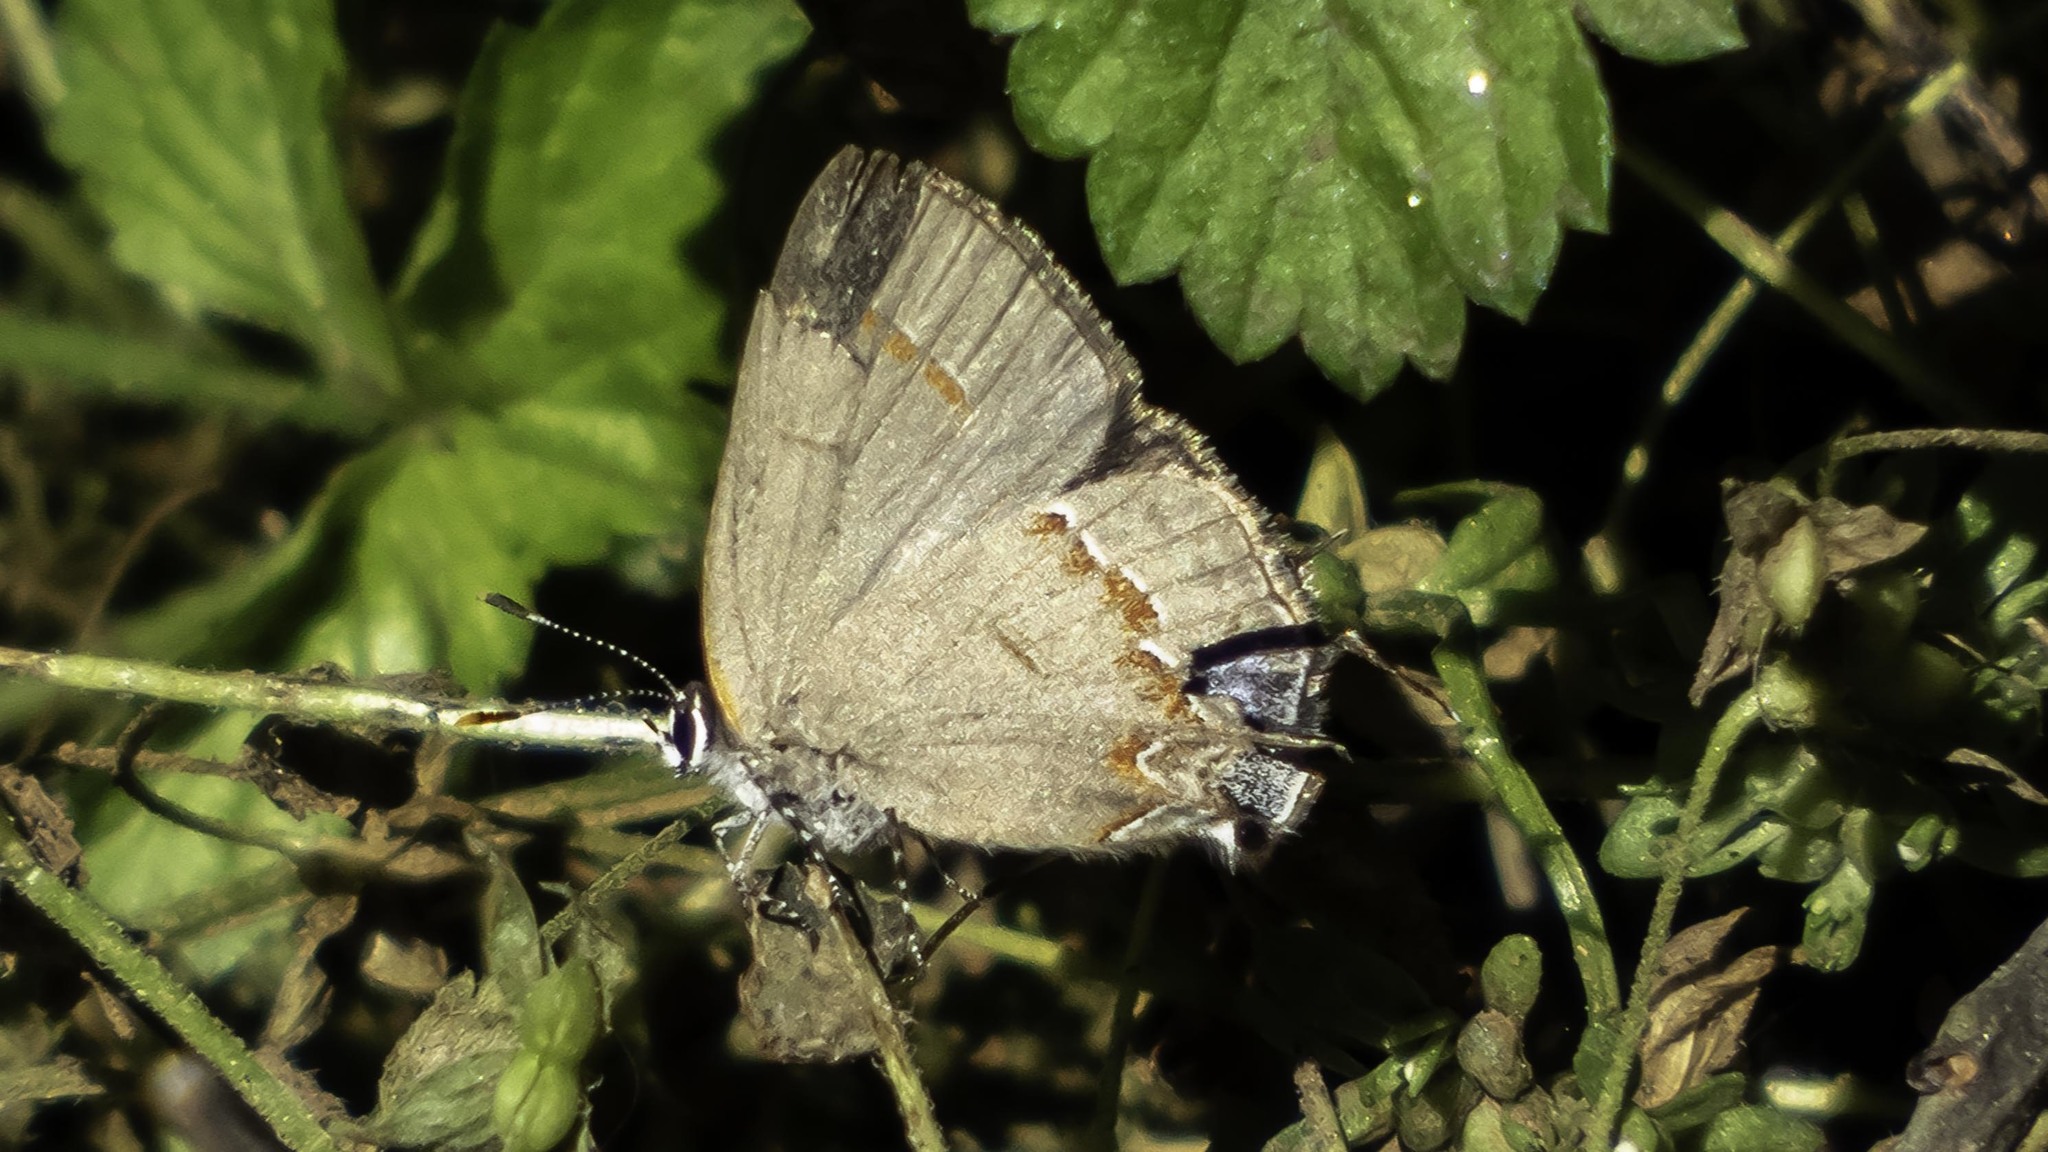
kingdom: Animalia
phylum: Arthropoda
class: Insecta
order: Lepidoptera
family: Lycaenidae
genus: Calycopis
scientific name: Calycopis cecrops
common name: Red-banded hairstreak
